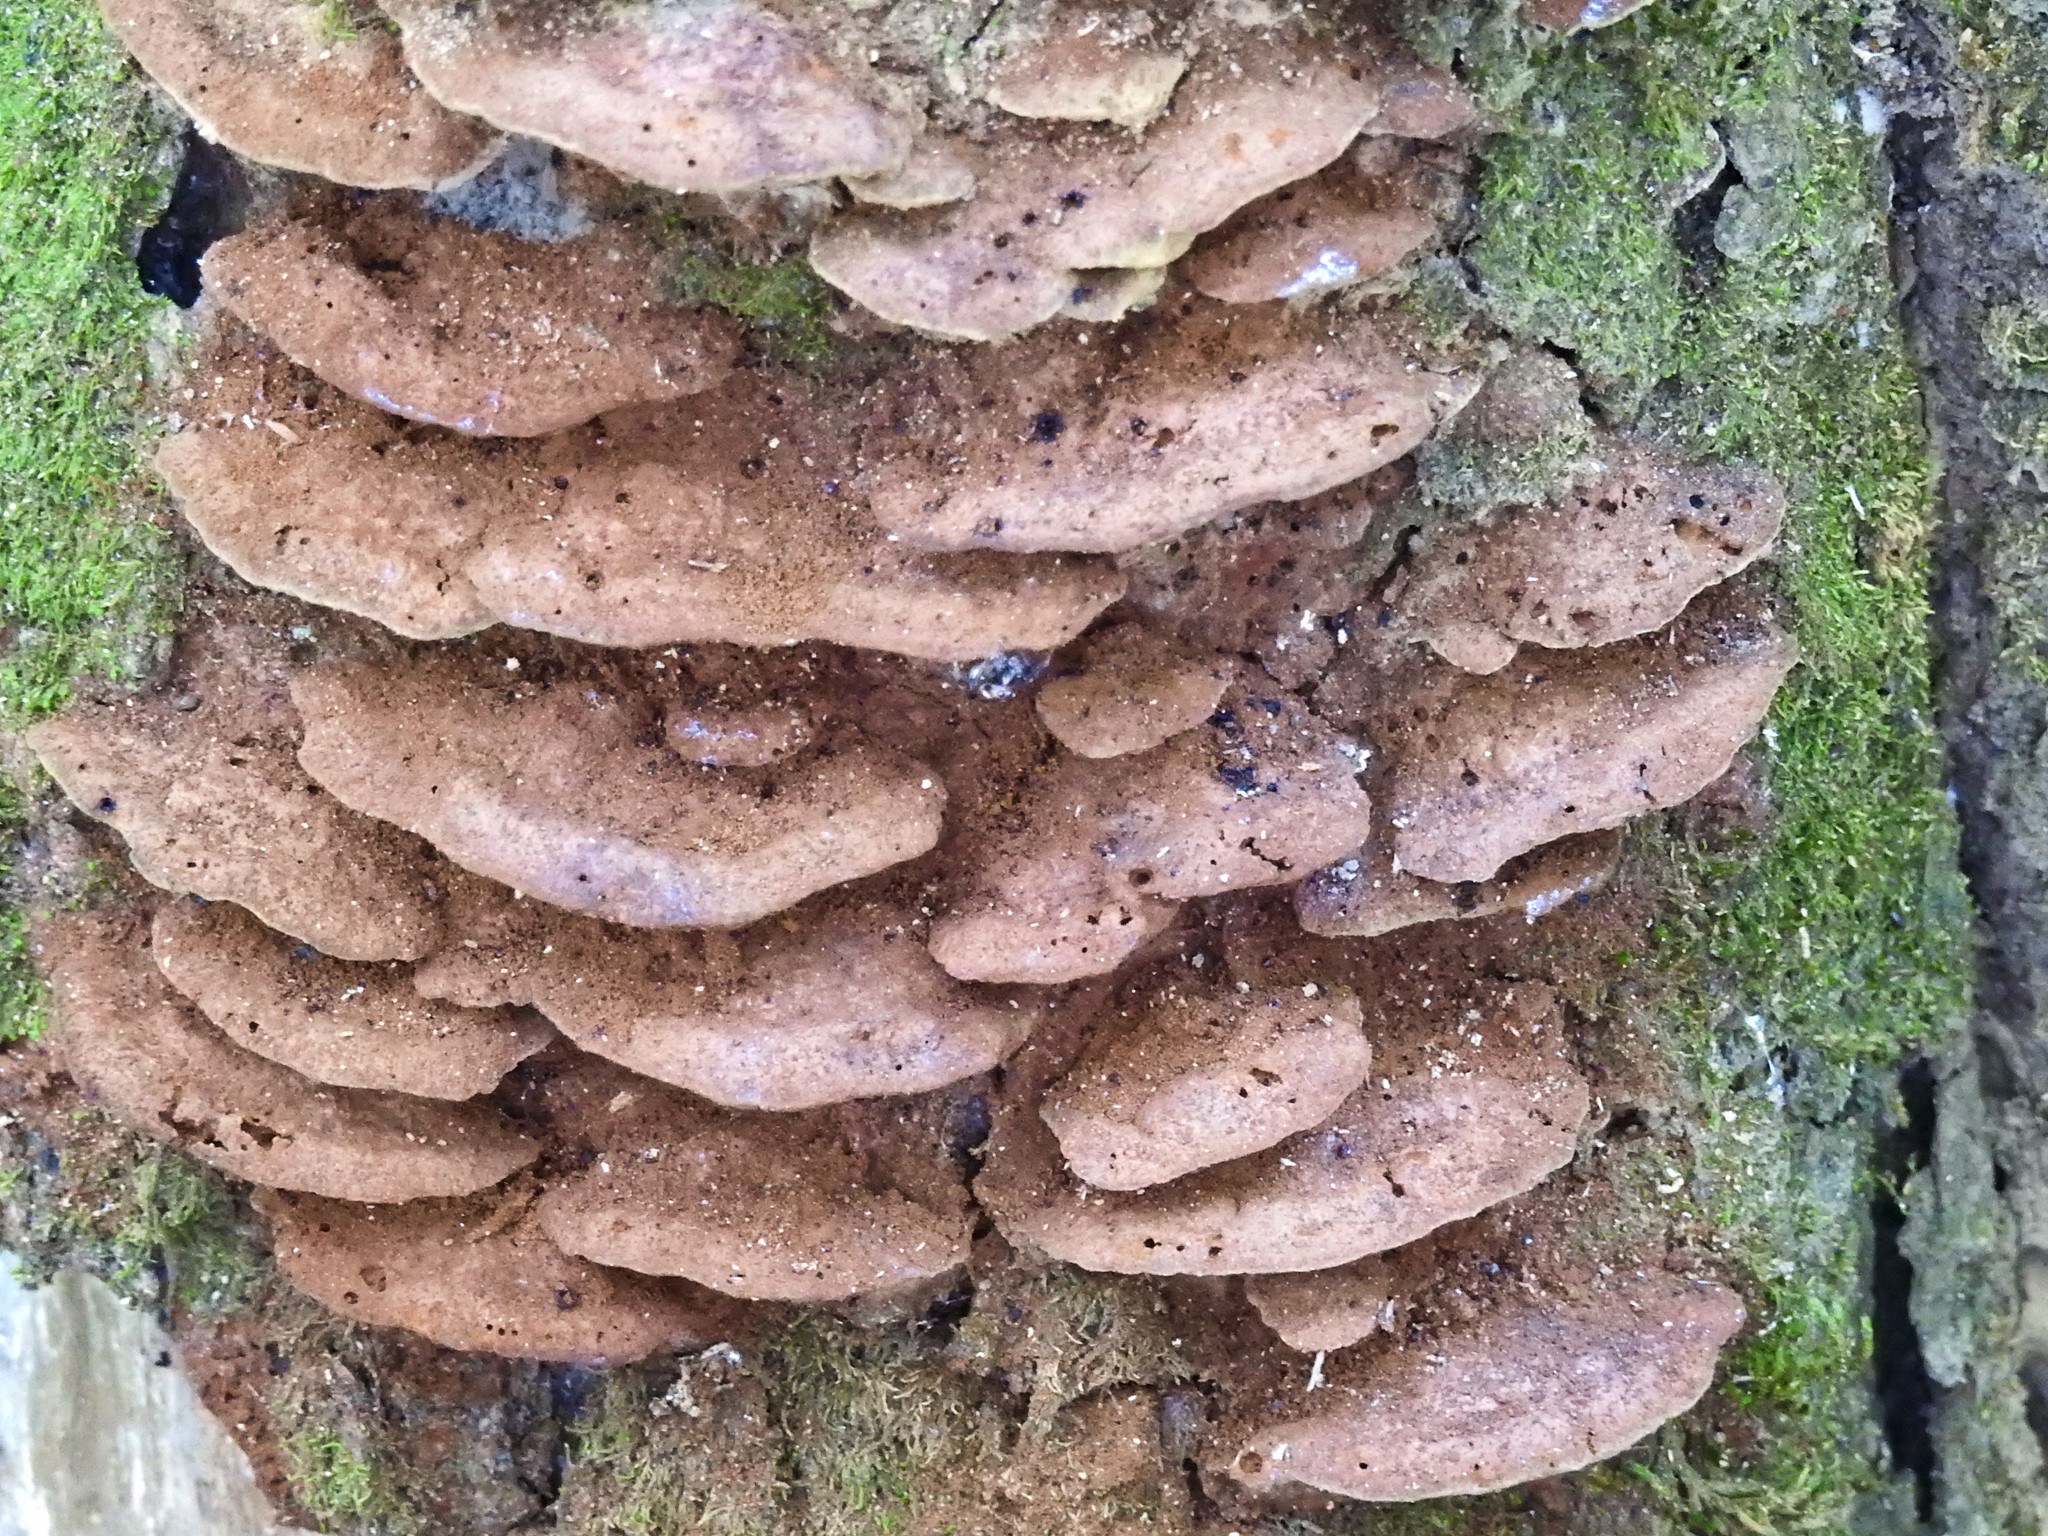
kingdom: Fungi
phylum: Basidiomycota
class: Agaricomycetes
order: Hymenochaetales
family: Hymenochaetaceae
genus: Pseudoinonotus
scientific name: Pseudoinonotus dryadeus
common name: Oak bracket
